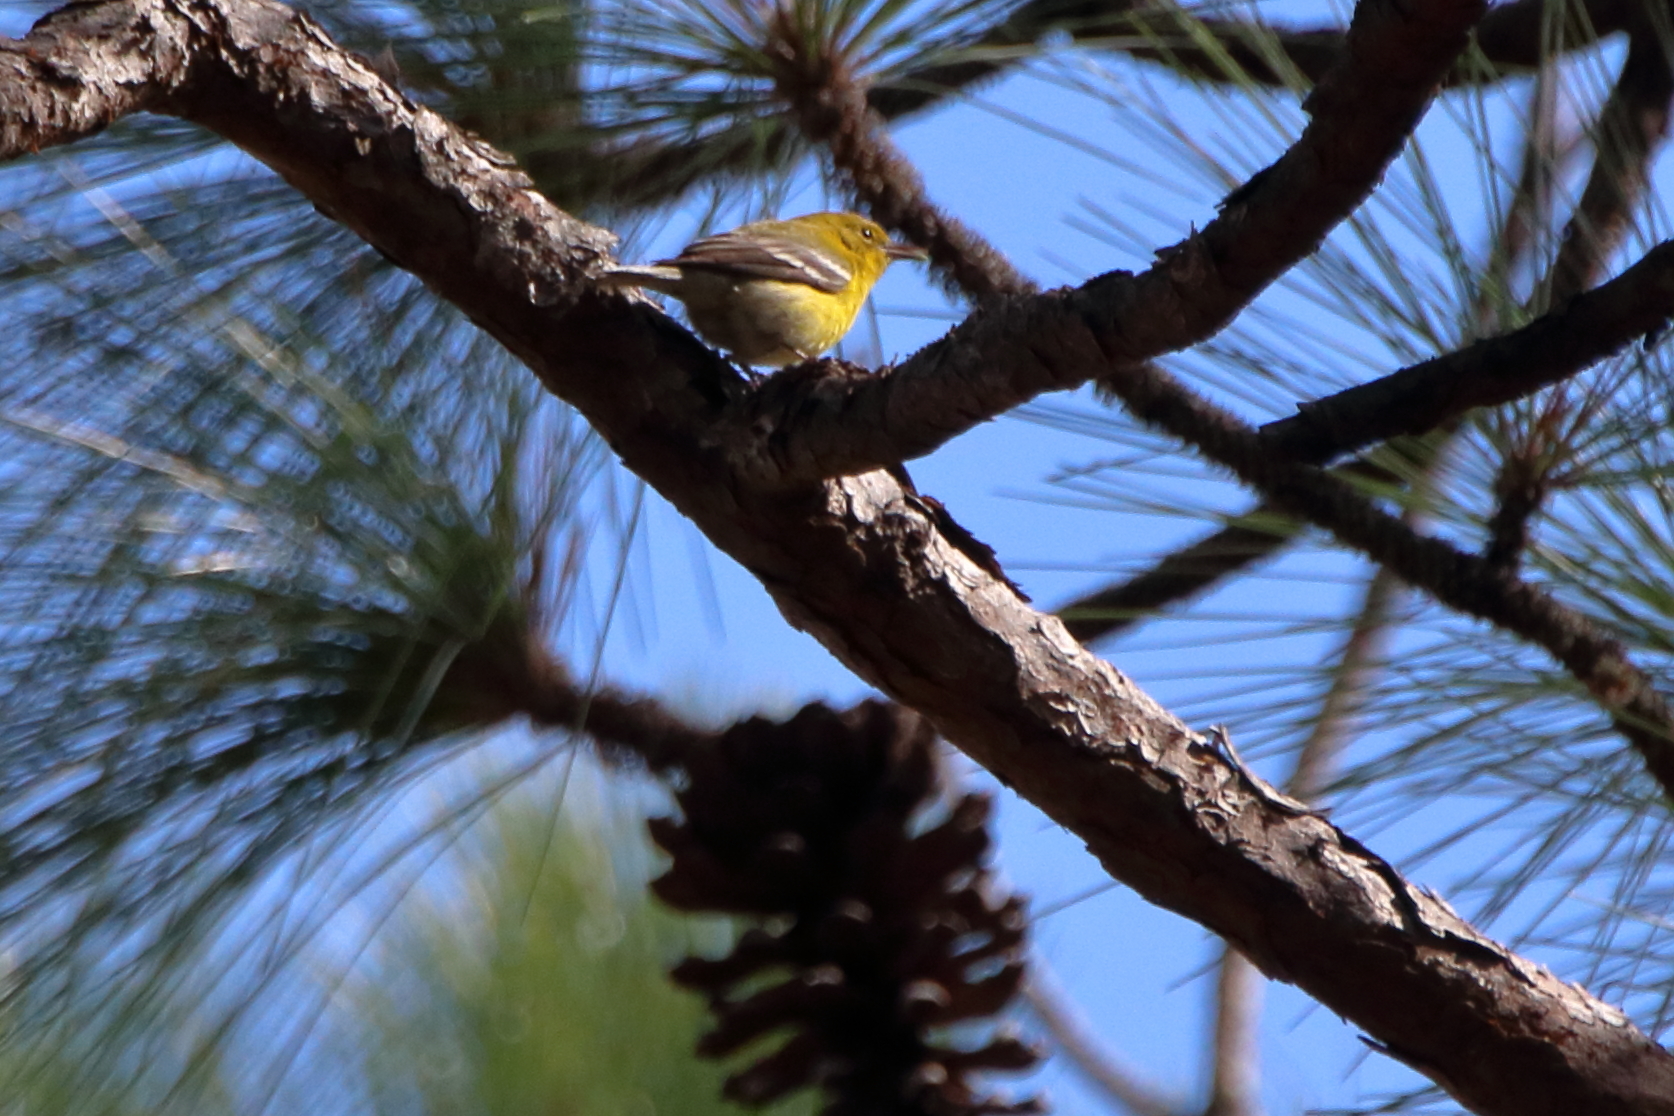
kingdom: Animalia
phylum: Chordata
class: Aves
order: Passeriformes
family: Parulidae
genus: Setophaga
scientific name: Setophaga pinus
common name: Pine warbler
